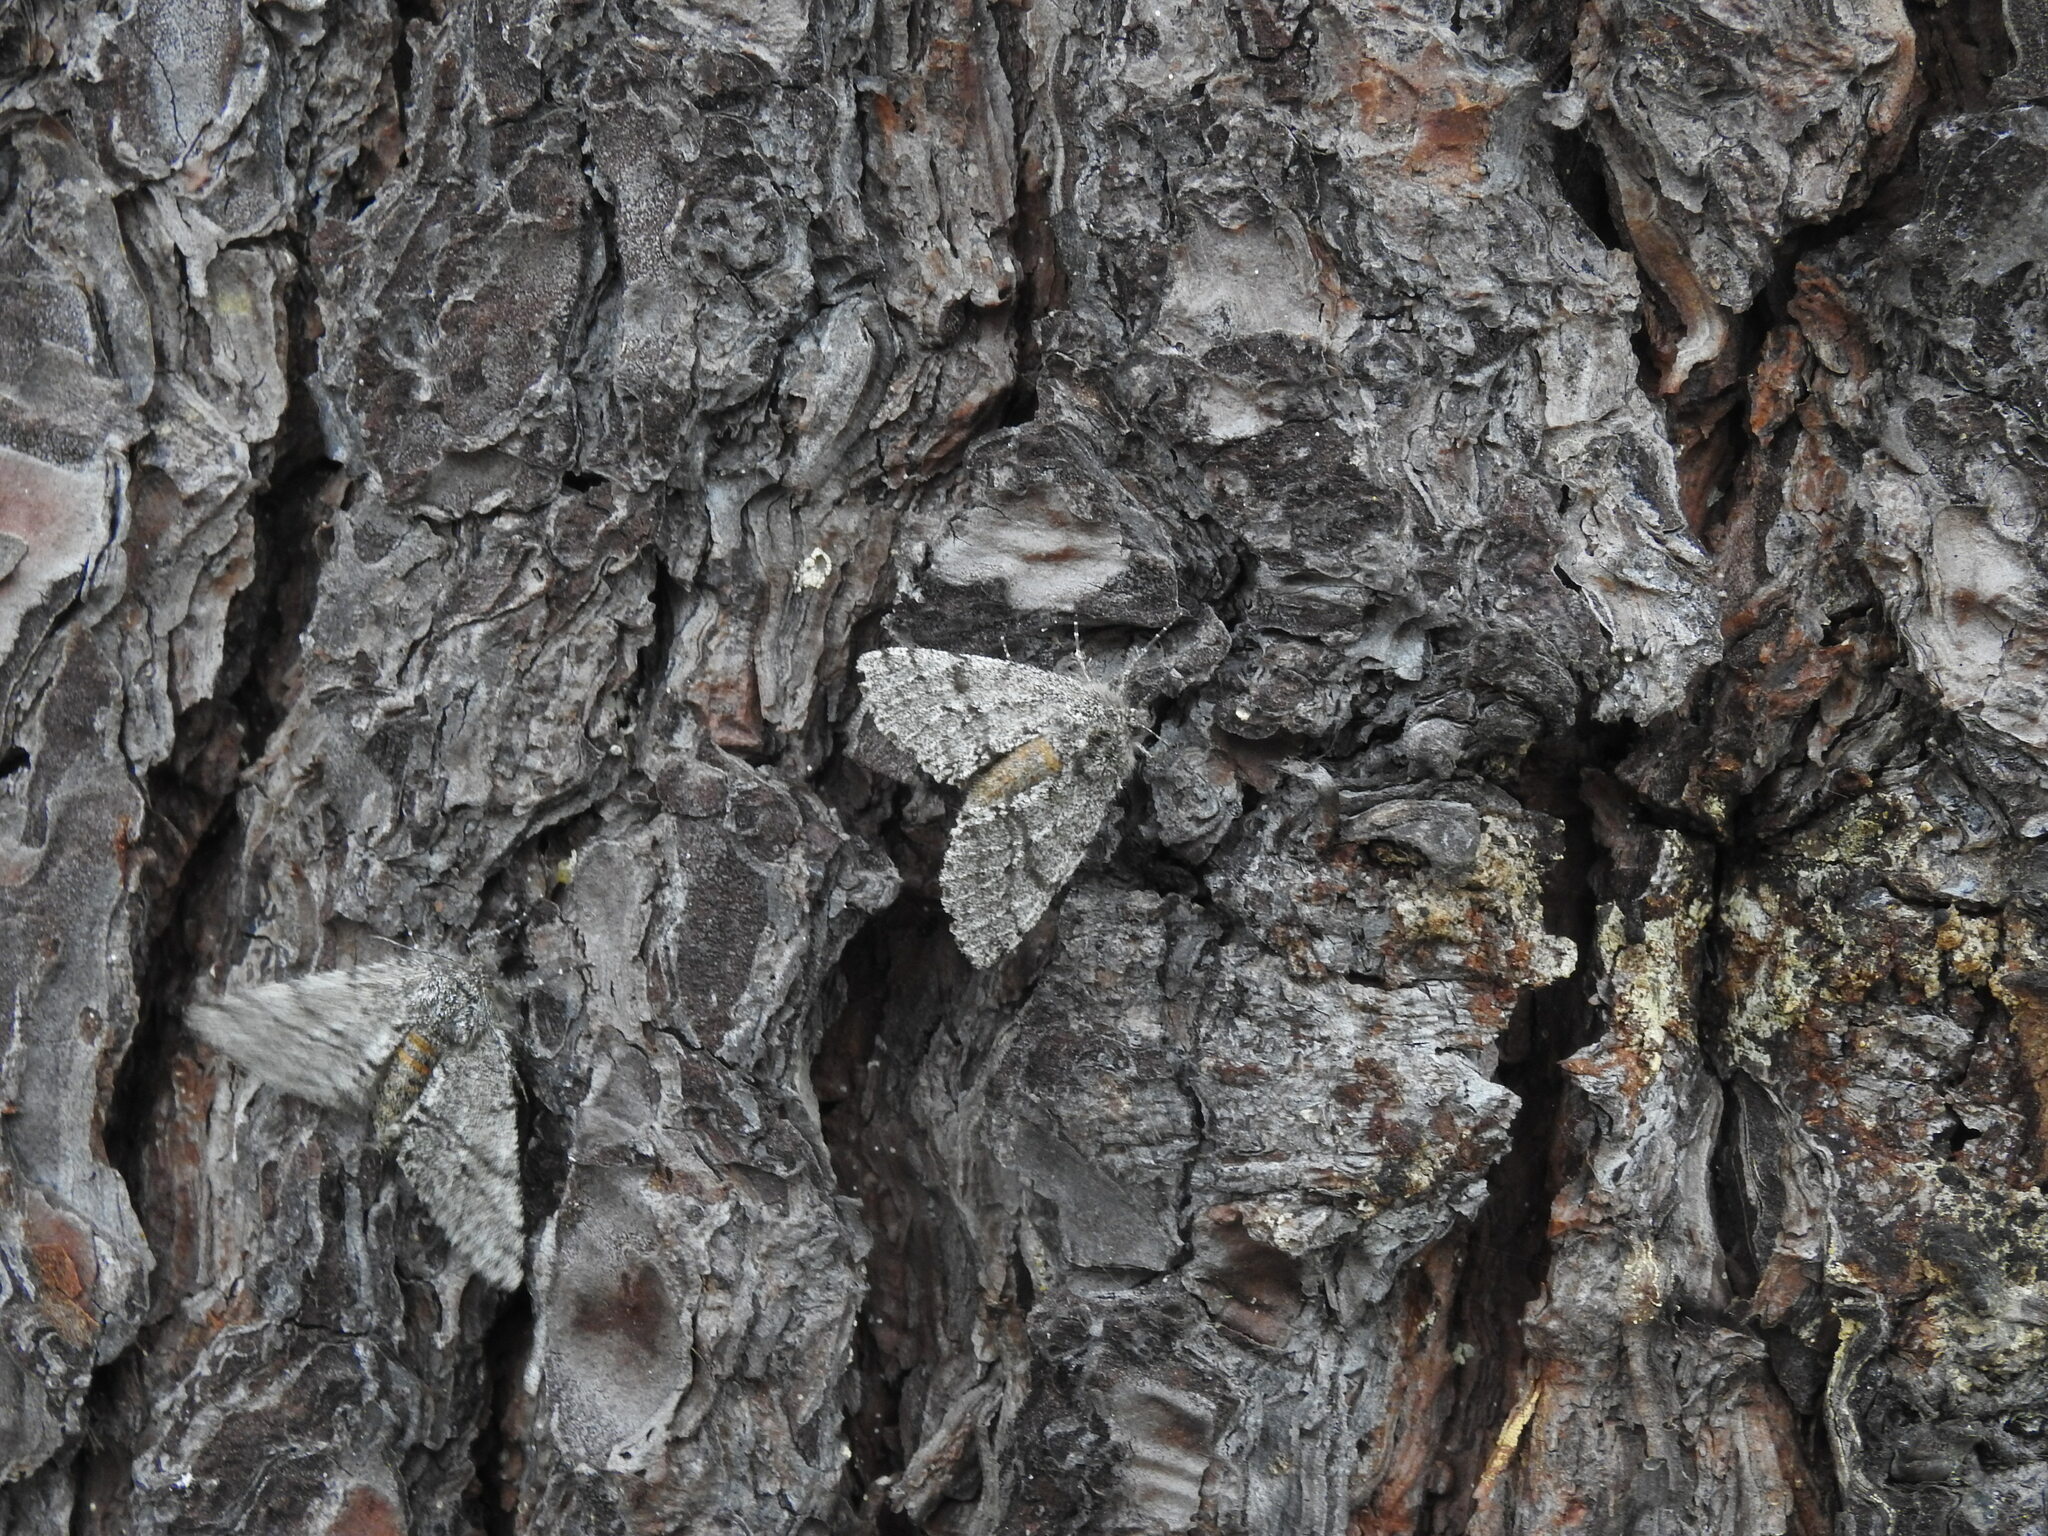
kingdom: Animalia
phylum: Arthropoda
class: Insecta
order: Lepidoptera
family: Geometridae
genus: Lycia
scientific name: Lycia hirtaria
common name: Brindled beauty
